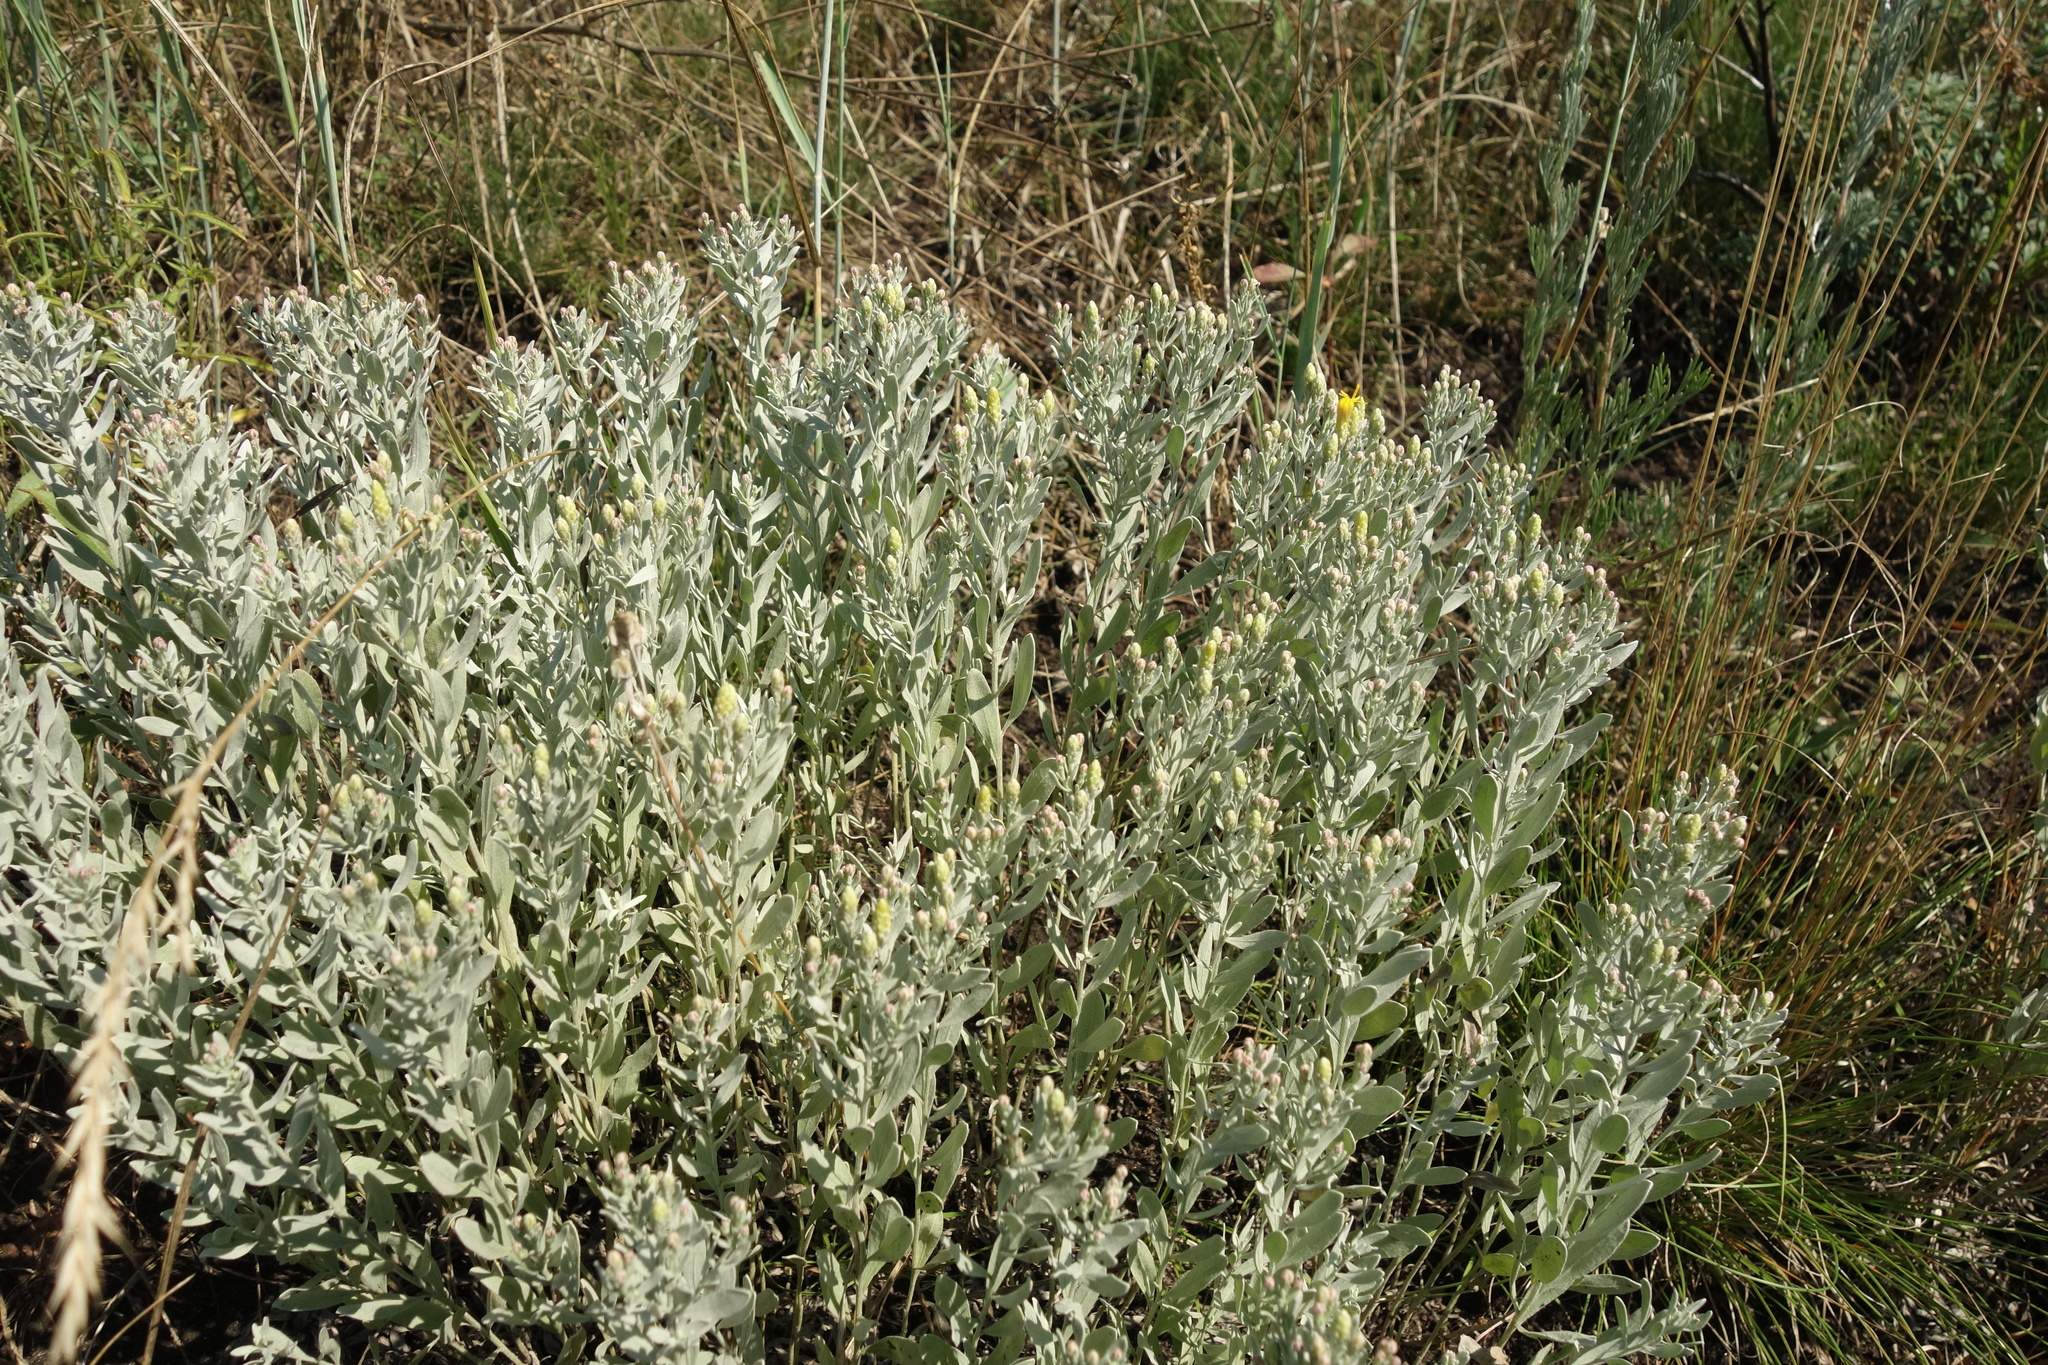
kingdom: Plantae
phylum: Tracheophyta
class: Magnoliopsida
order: Asterales
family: Asteraceae
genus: Galatella
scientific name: Galatella villosa
